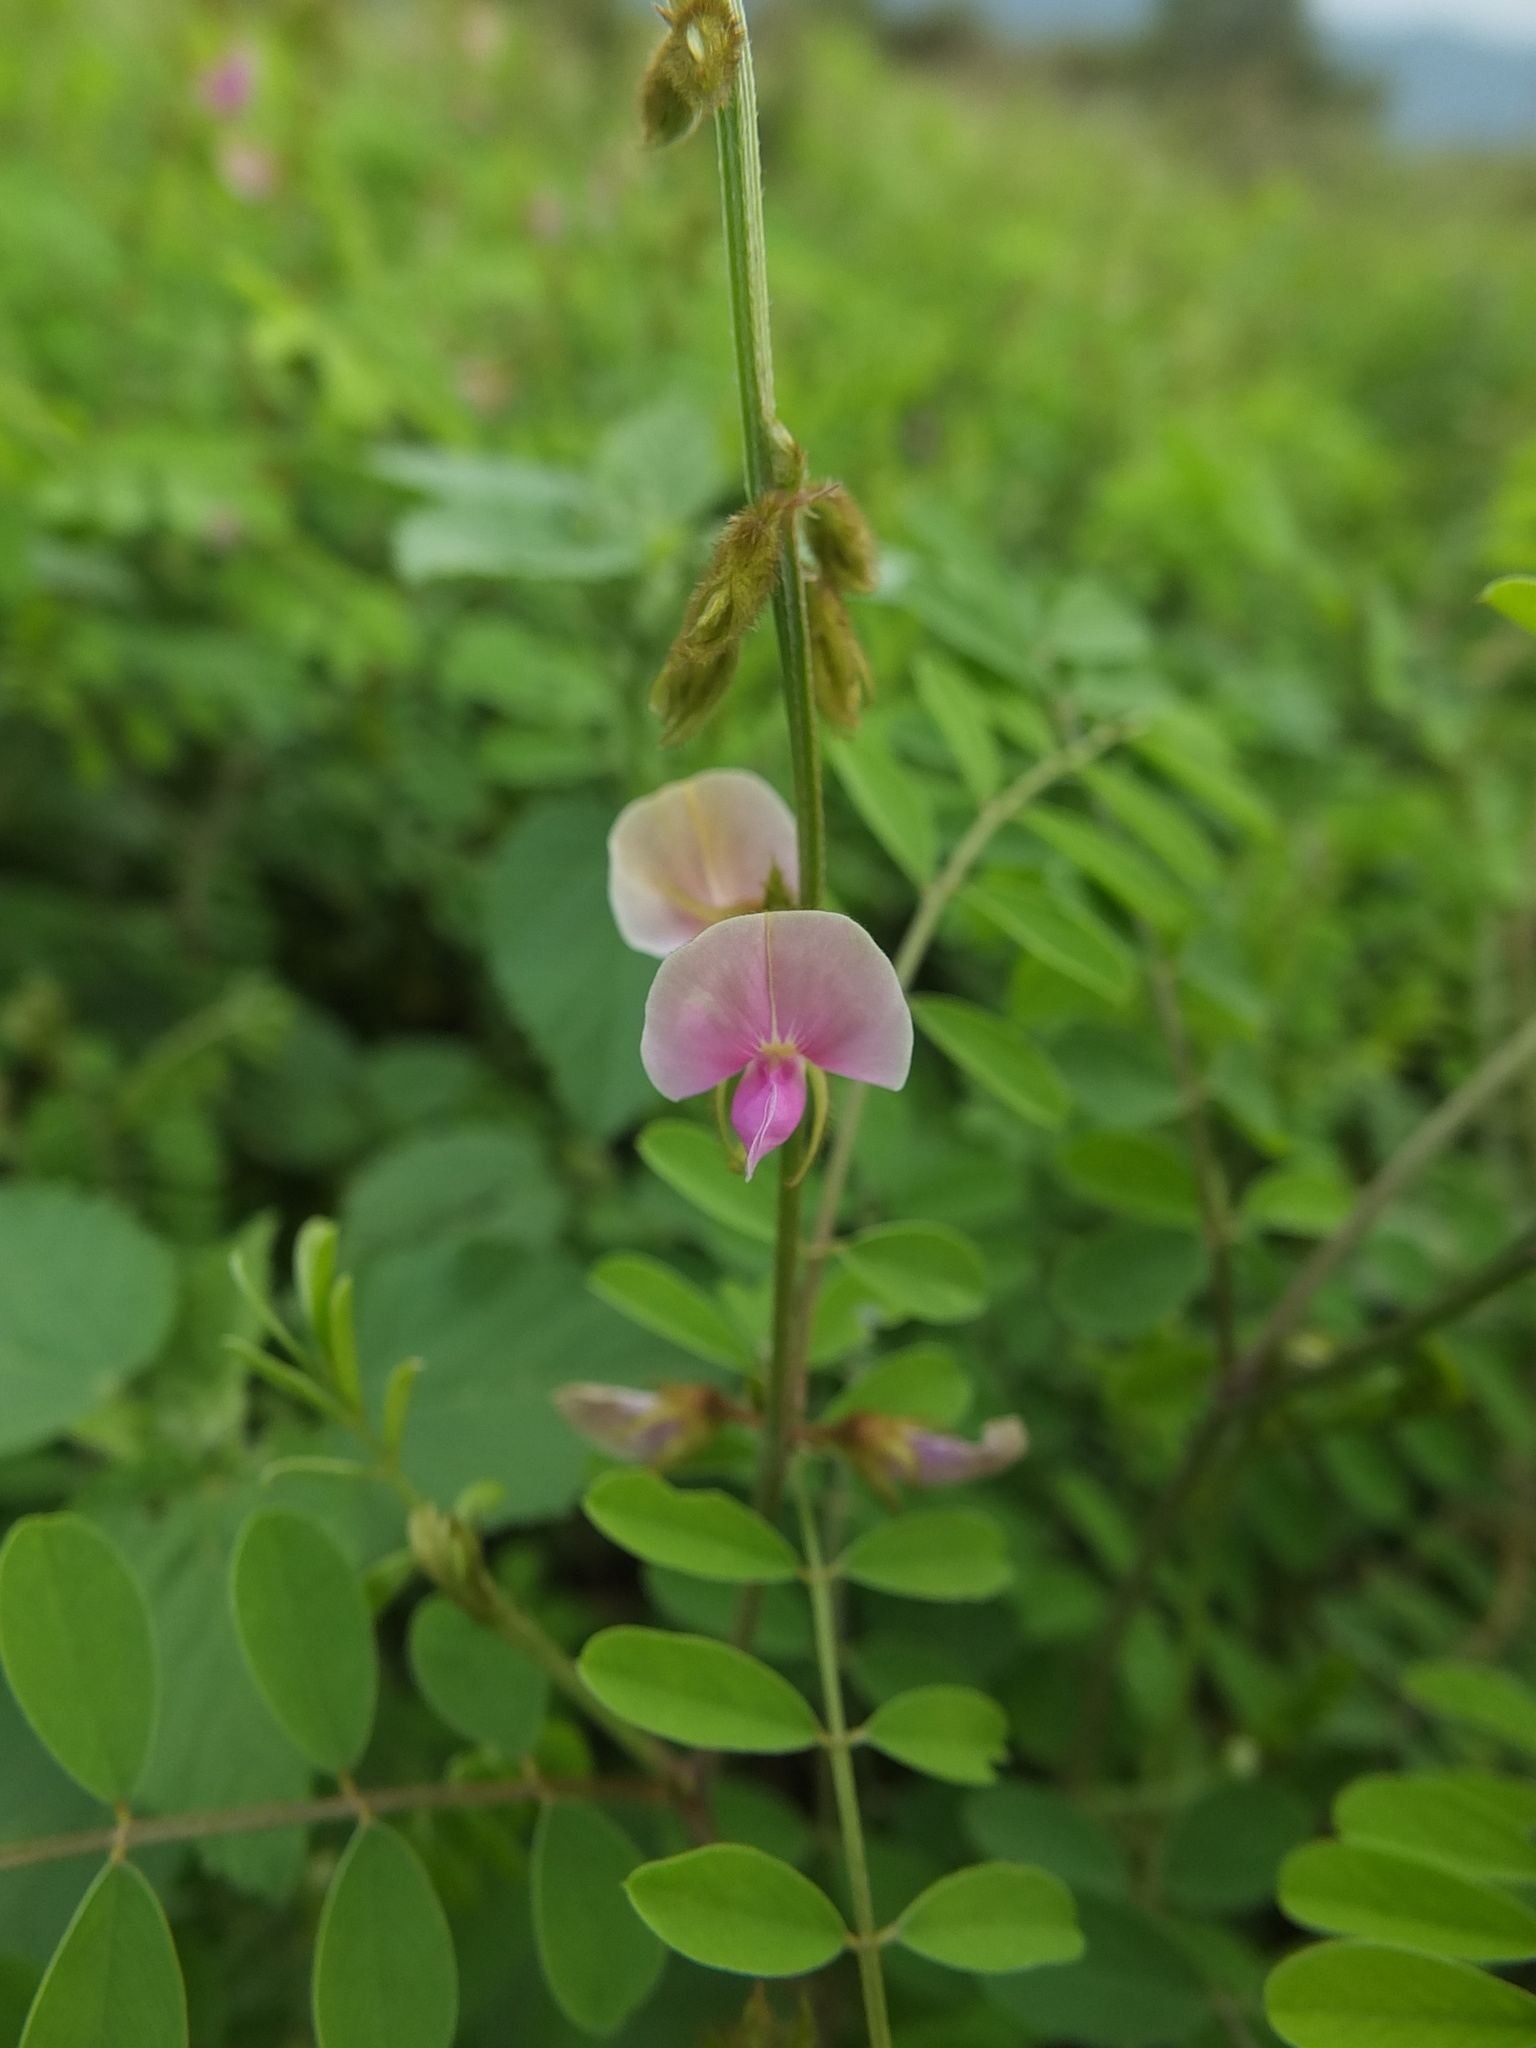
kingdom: Plantae
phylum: Tracheophyta
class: Magnoliopsida
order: Fabales
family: Fabaceae
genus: Tephrosia
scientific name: Tephrosia villosa
